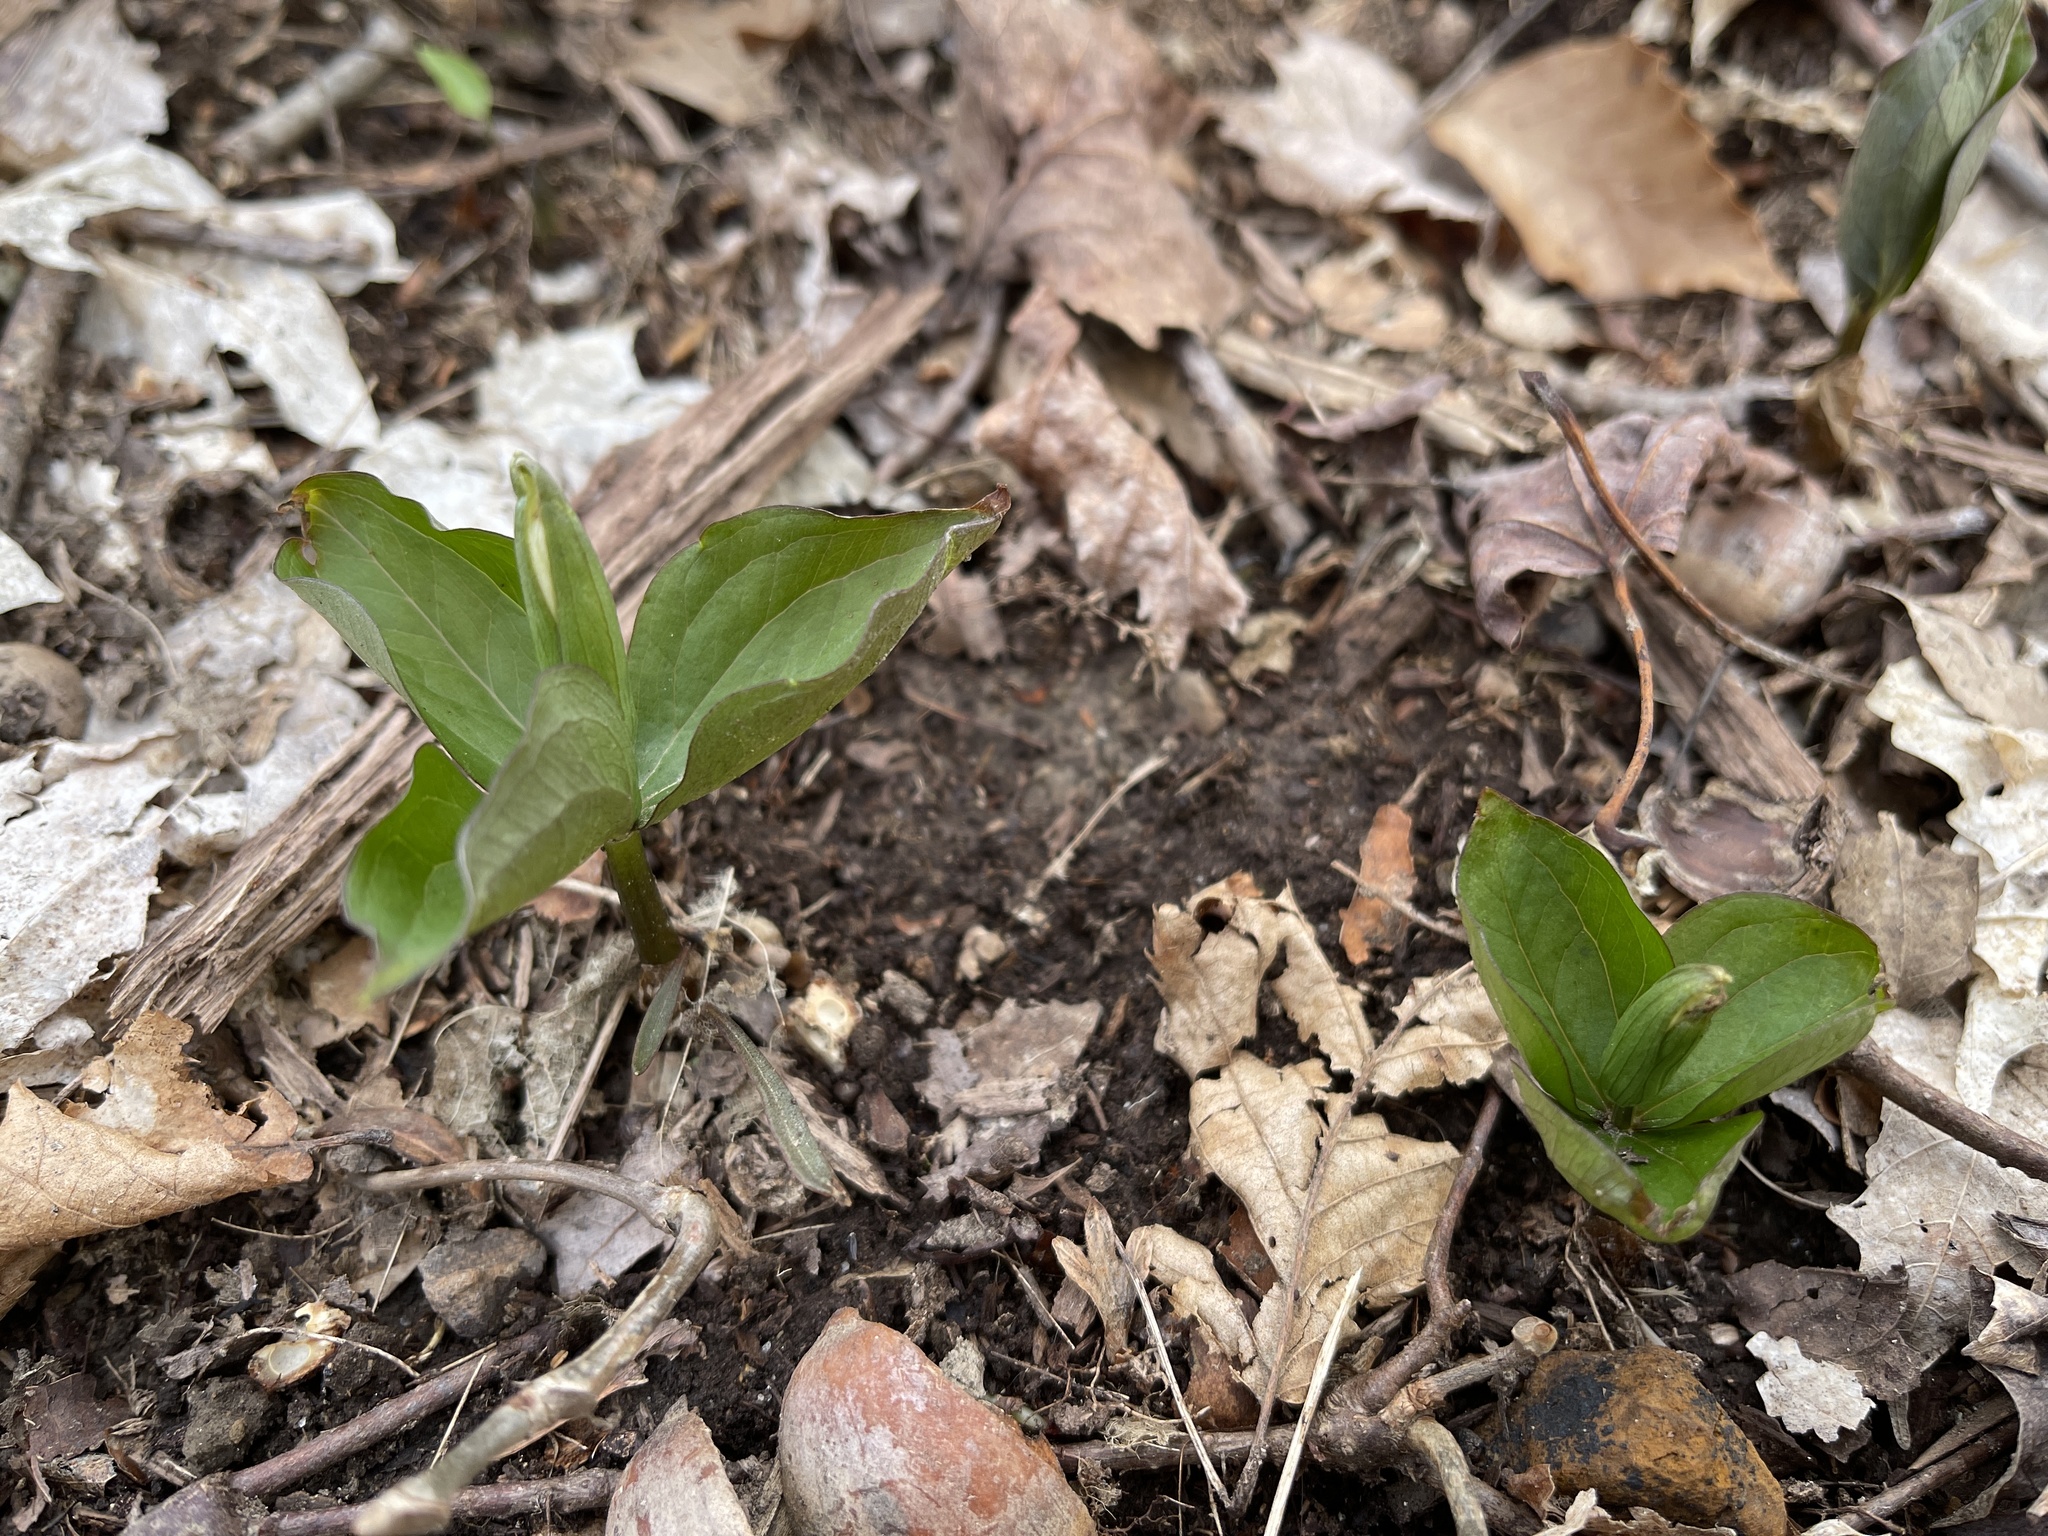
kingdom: Plantae
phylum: Tracheophyta
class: Liliopsida
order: Liliales
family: Melanthiaceae
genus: Trillium
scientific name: Trillium grandiflorum
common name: Great white trillium
